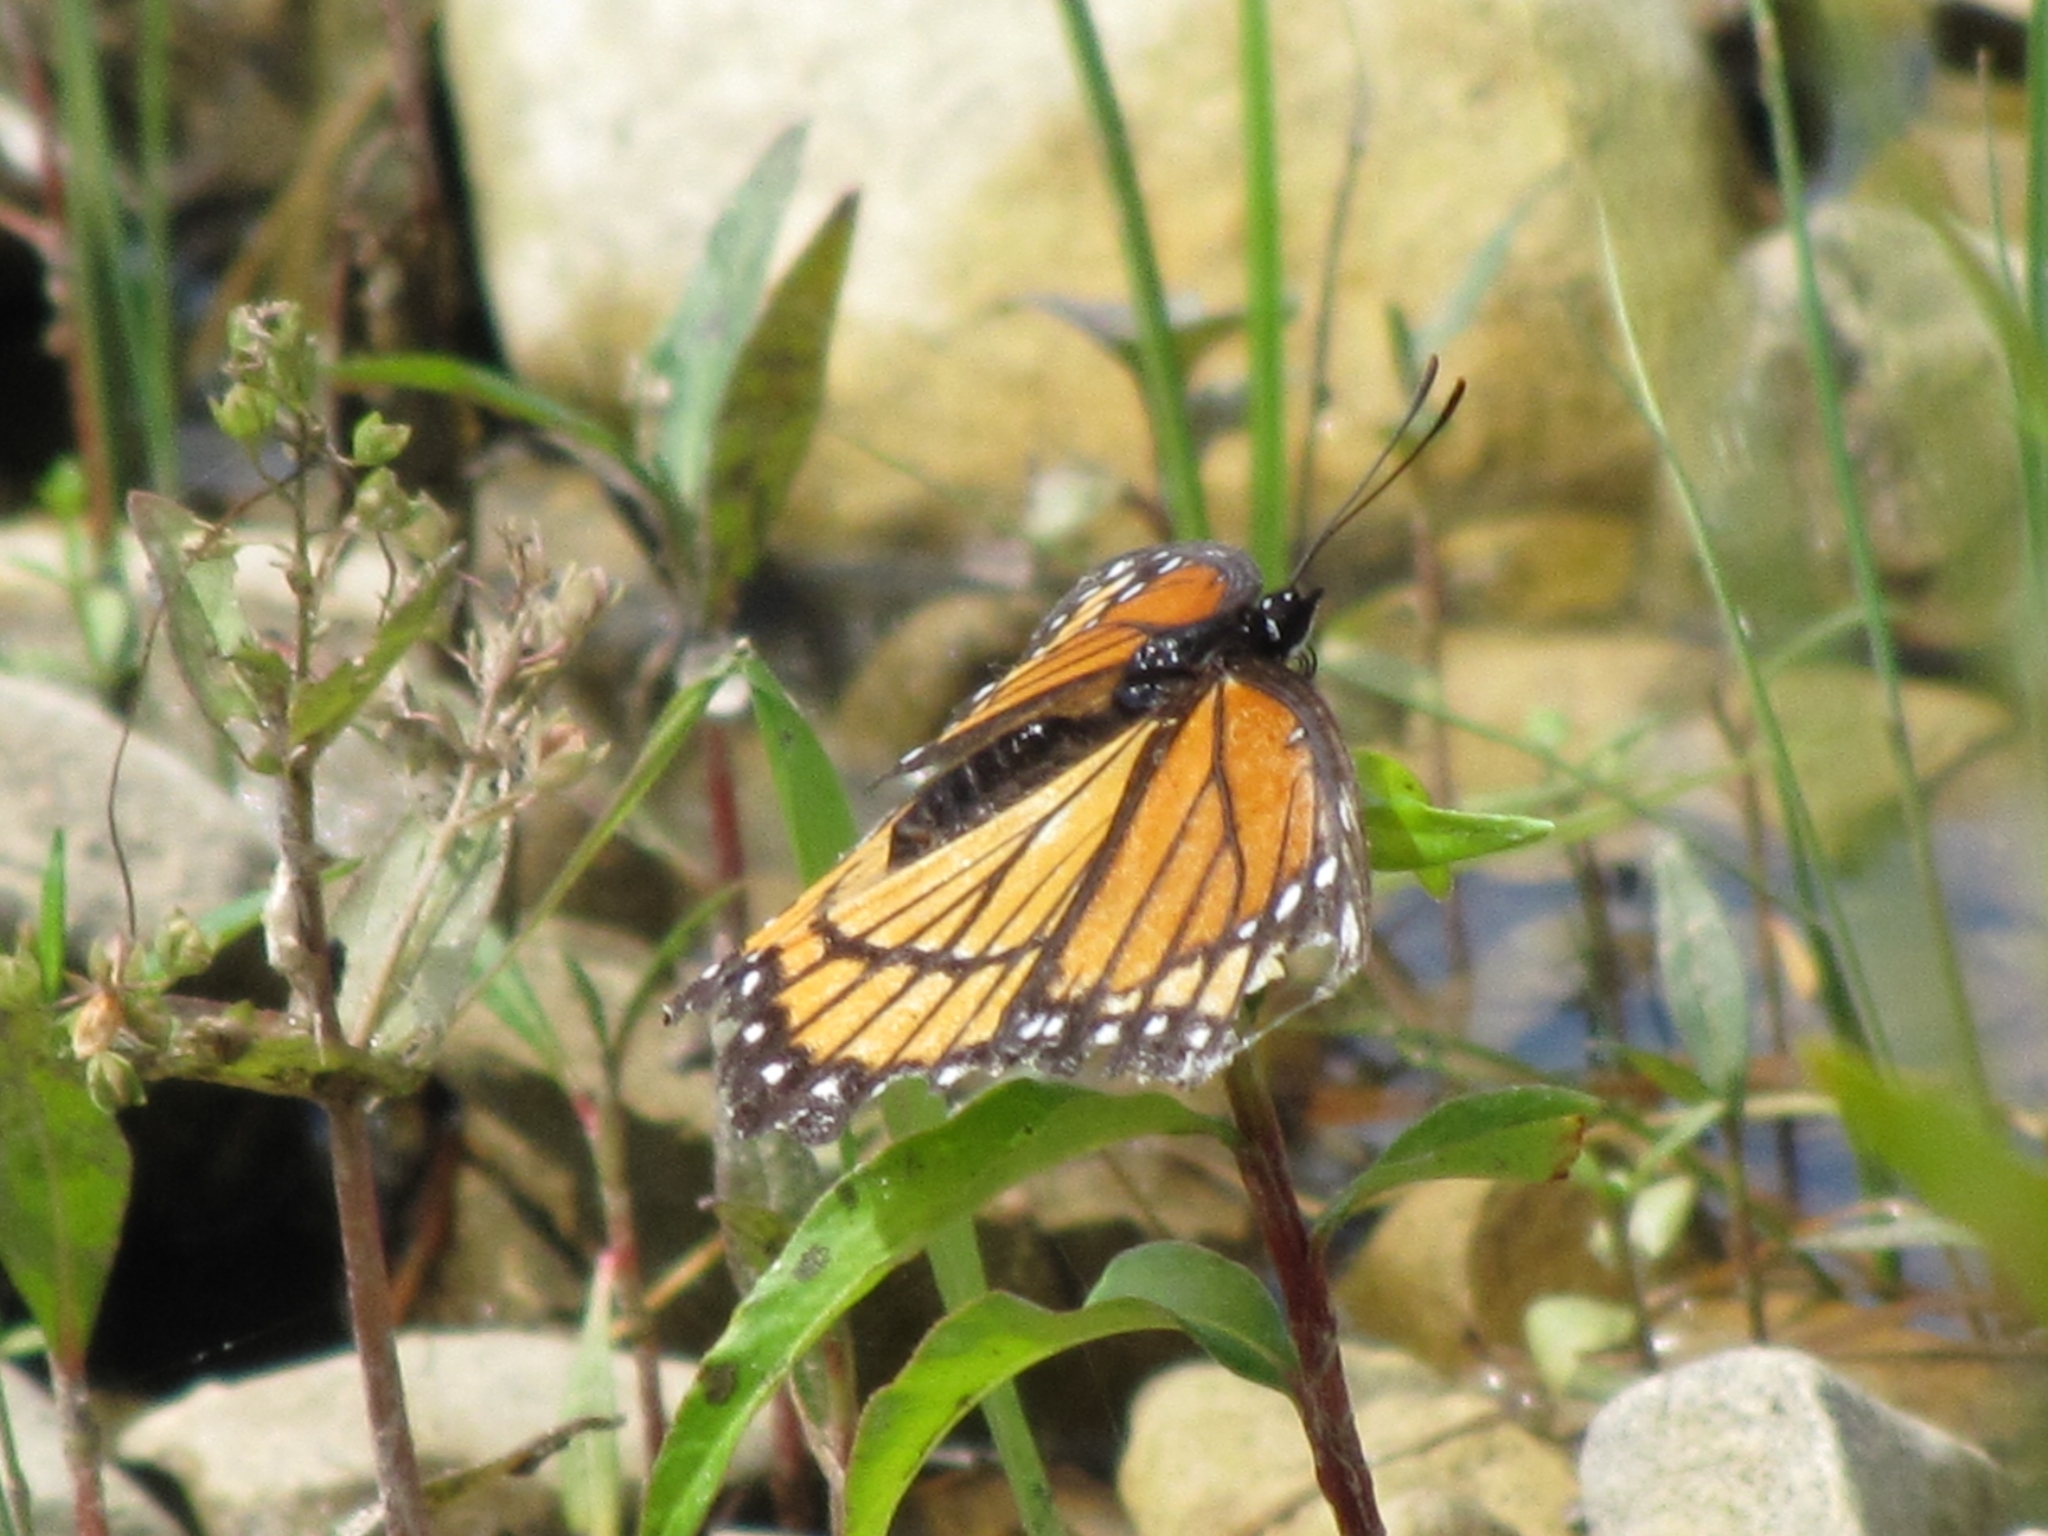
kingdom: Animalia
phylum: Arthropoda
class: Insecta
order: Lepidoptera
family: Nymphalidae
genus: Limenitis
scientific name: Limenitis archippus
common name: Viceroy
